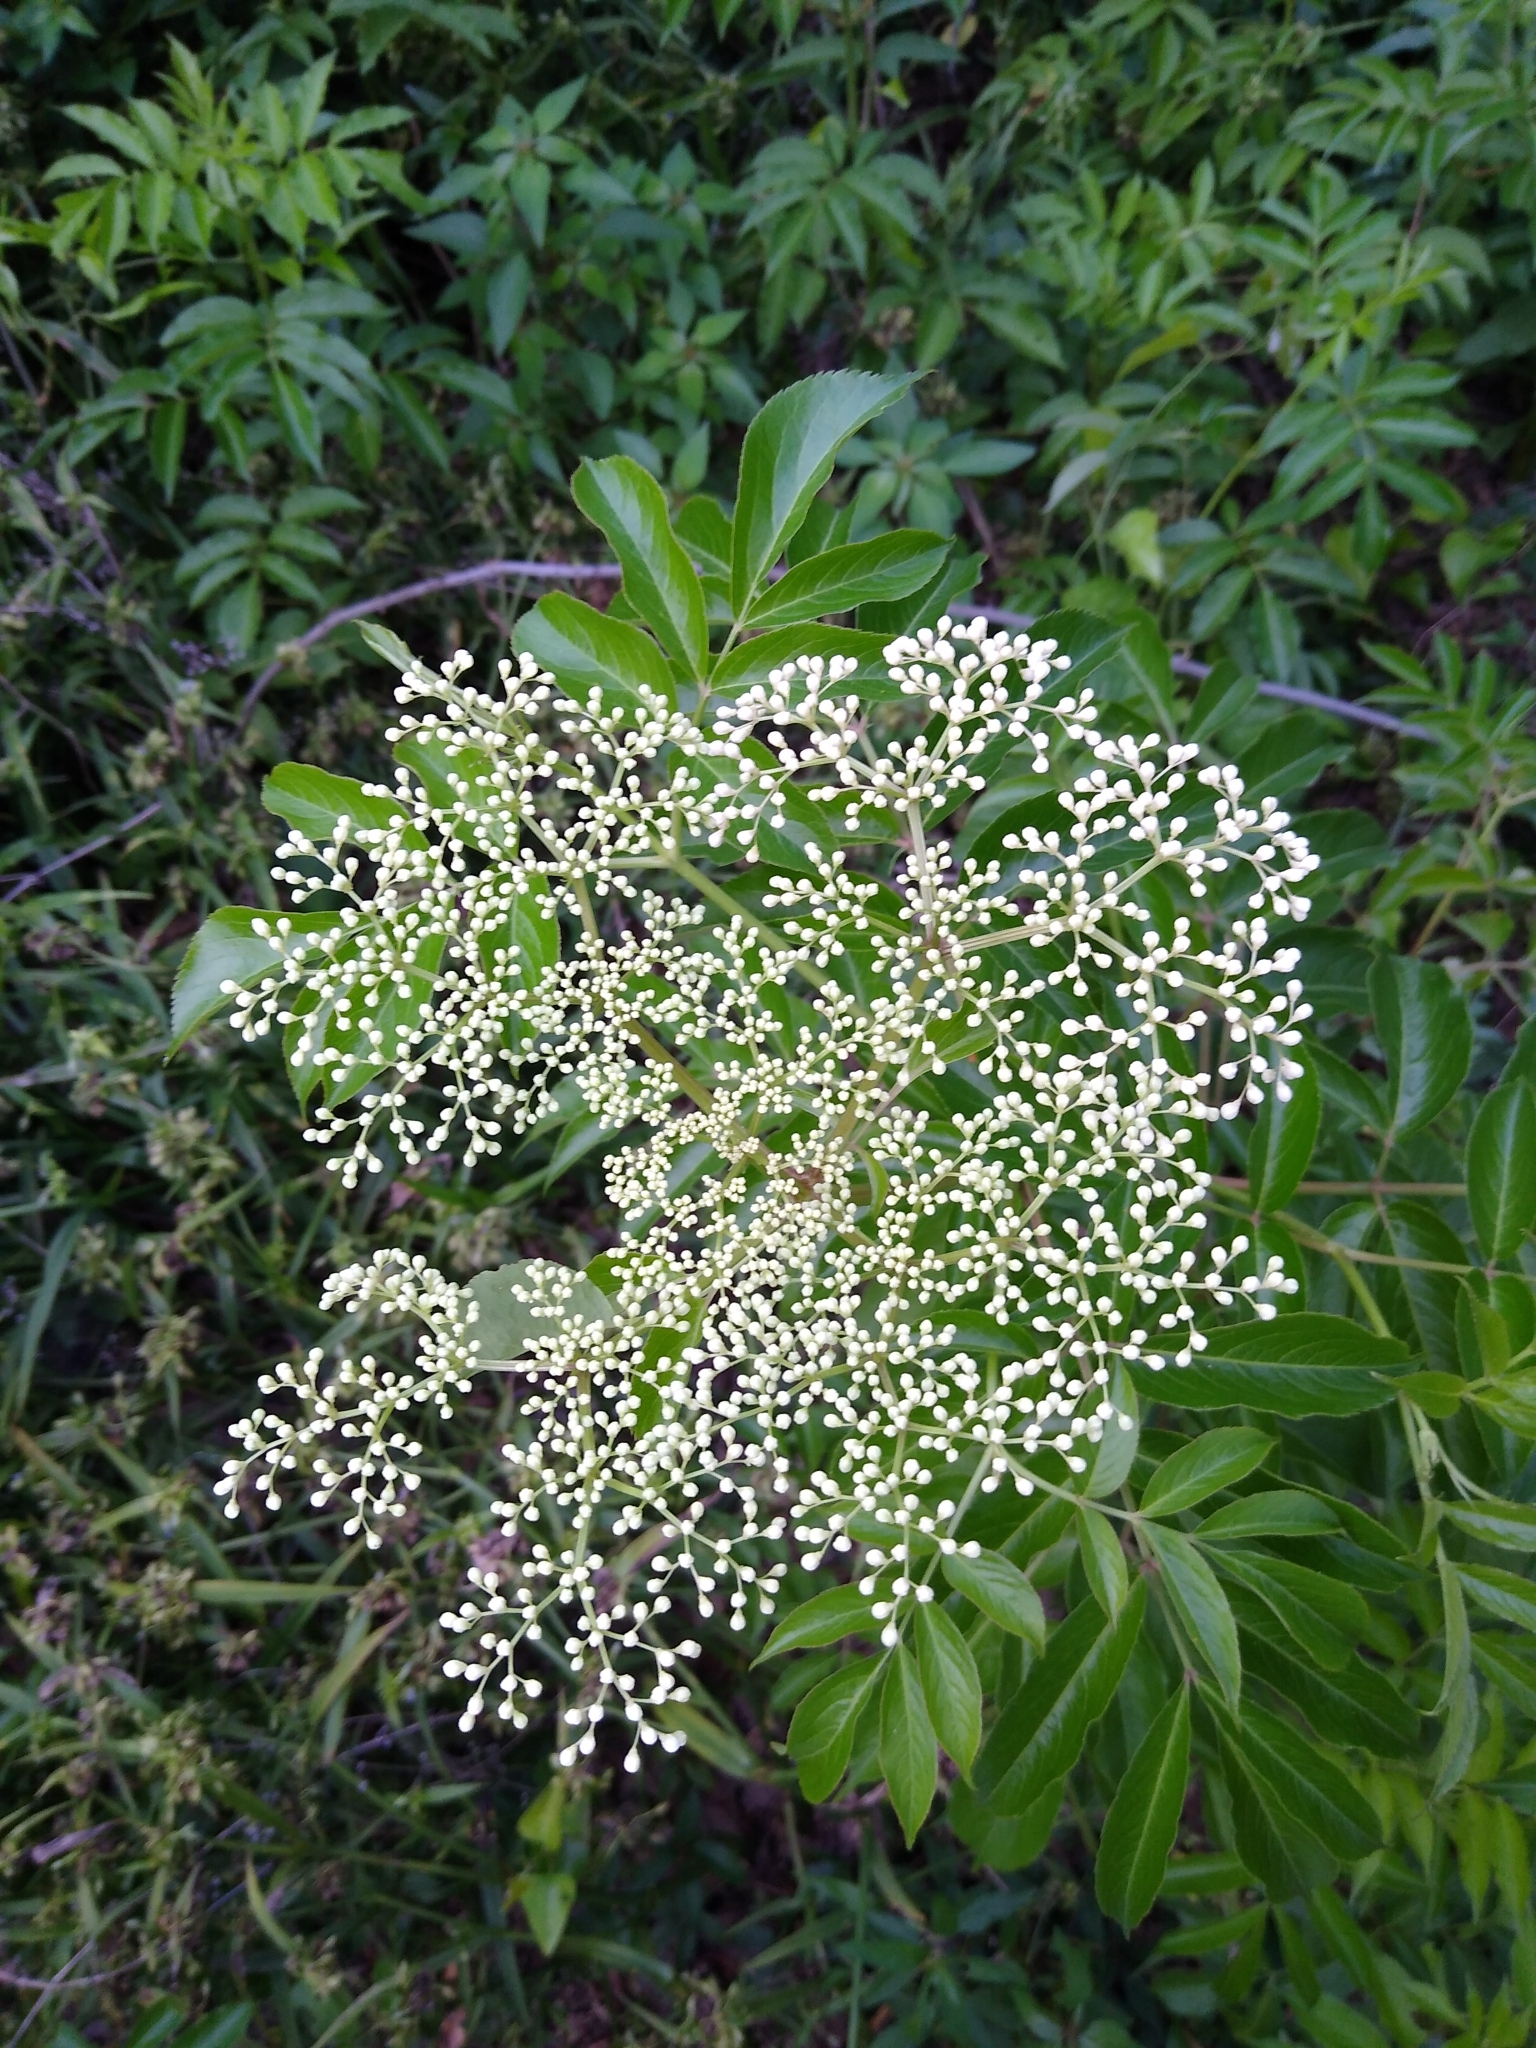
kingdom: Plantae
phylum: Tracheophyta
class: Magnoliopsida
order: Dipsacales
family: Viburnaceae
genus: Sambucus
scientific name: Sambucus canadensis
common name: American elder
